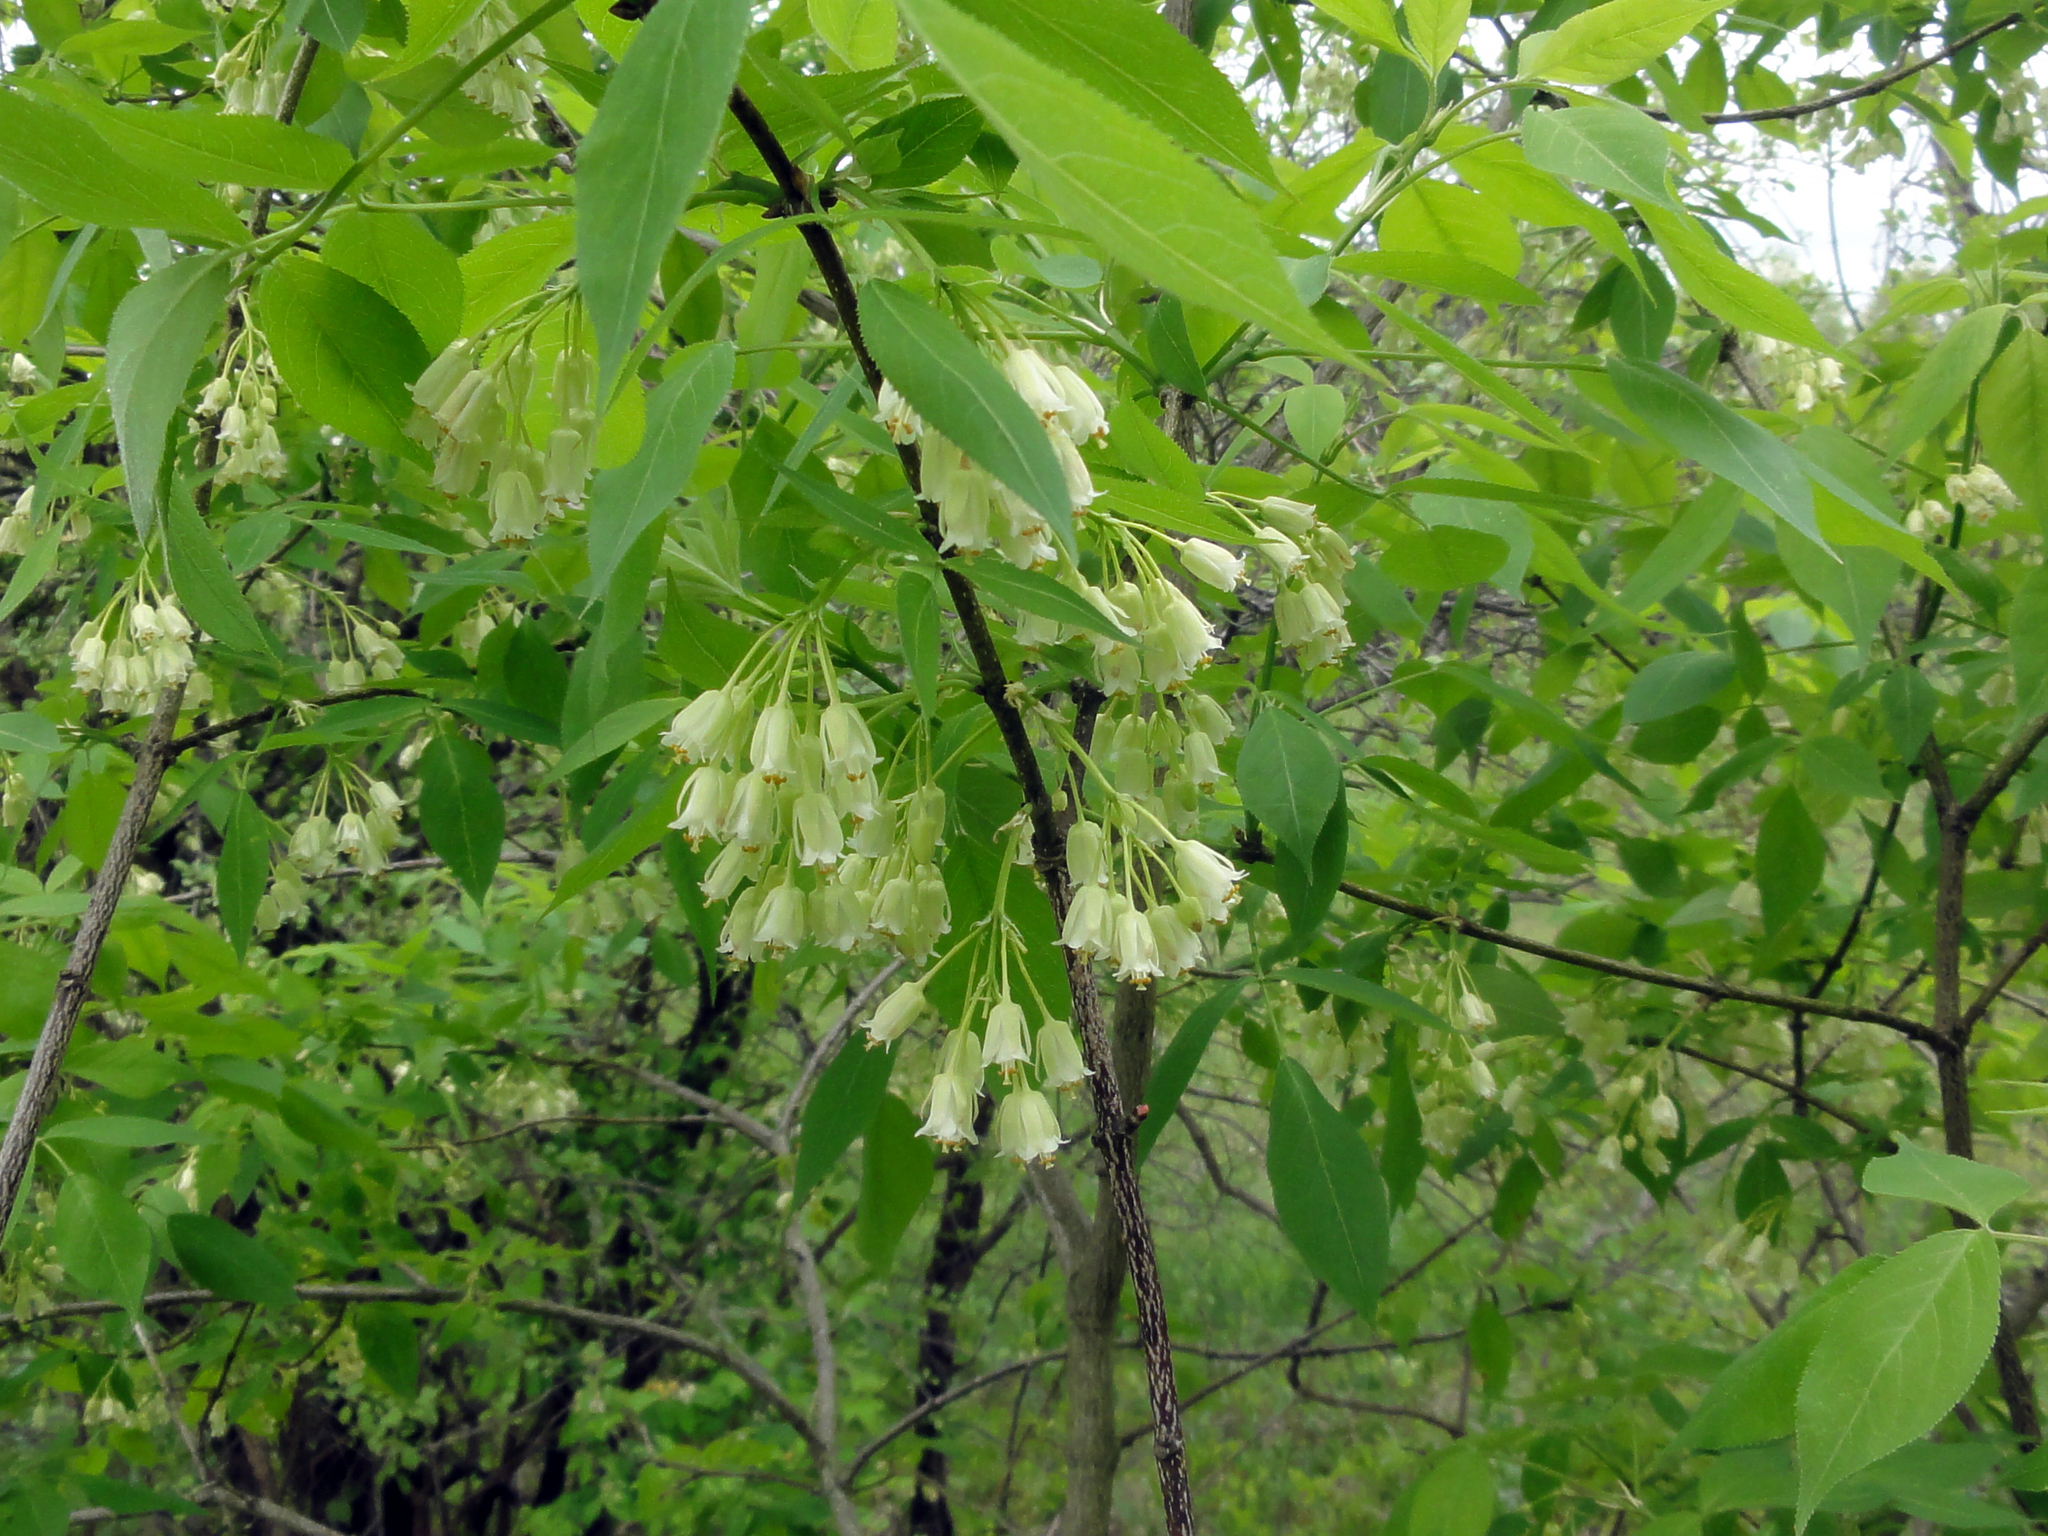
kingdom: Plantae
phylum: Tracheophyta
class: Magnoliopsida
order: Crossosomatales
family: Staphyleaceae
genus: Staphylea
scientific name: Staphylea trifolia
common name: American bladdernut
